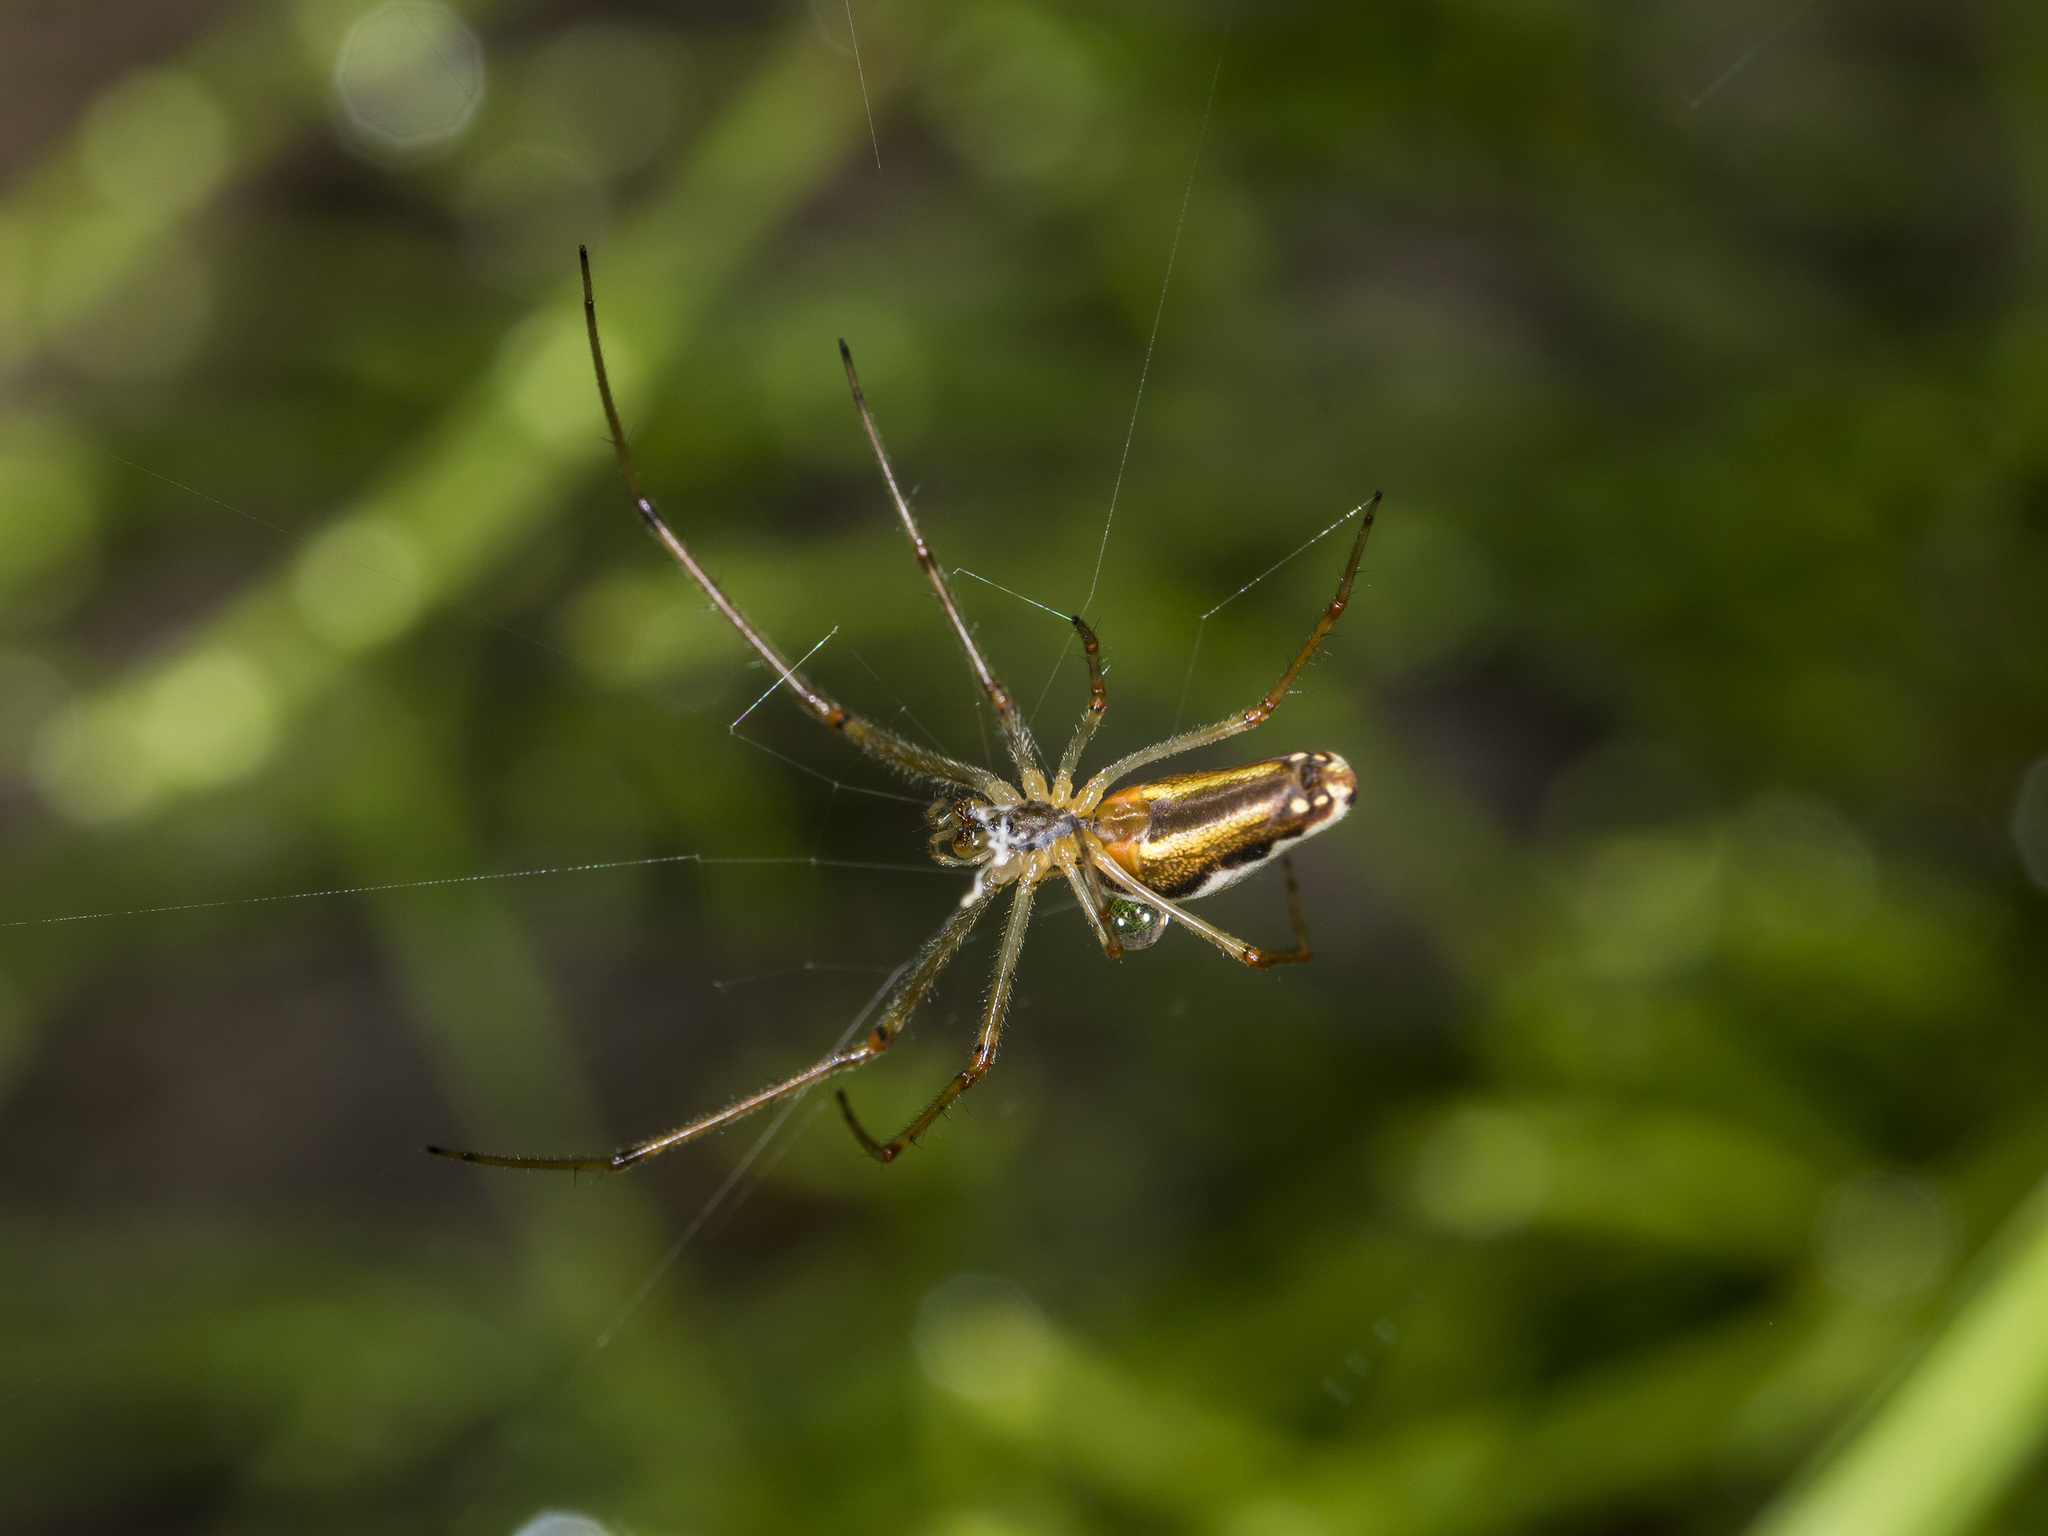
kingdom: Animalia
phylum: Arthropoda
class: Arachnida
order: Araneae
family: Tetragnathidae
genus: Tetragnatha
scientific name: Tetragnatha montana
